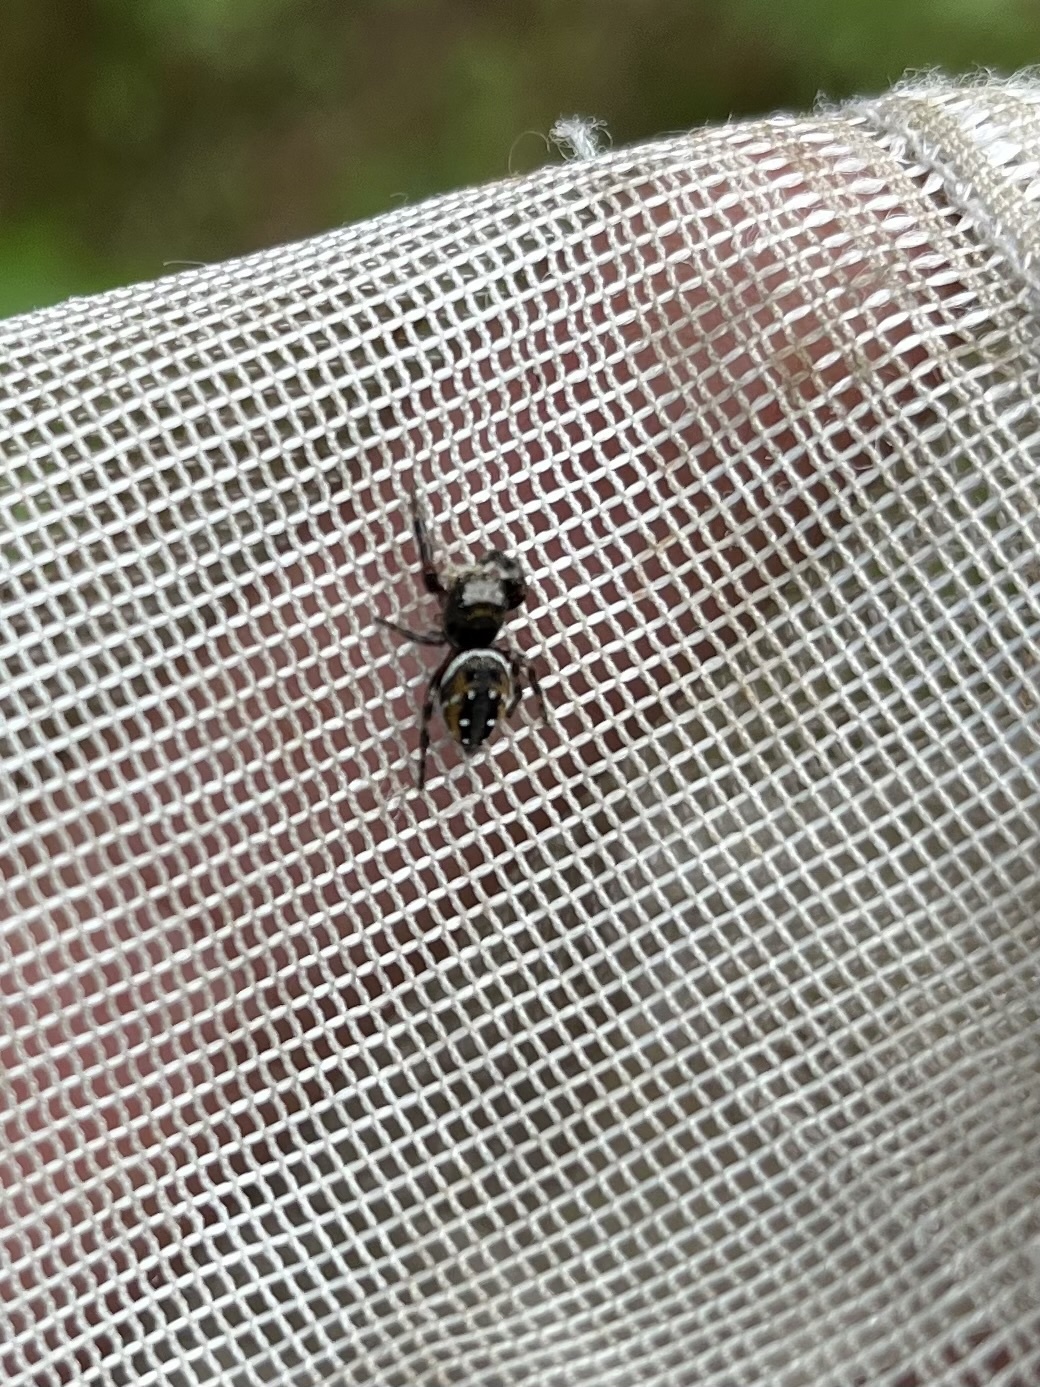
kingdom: Animalia
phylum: Arthropoda
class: Arachnida
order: Araneae
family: Salticidae
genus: Phidippus
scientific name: Phidippus clarus
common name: Brilliant jumping spider
